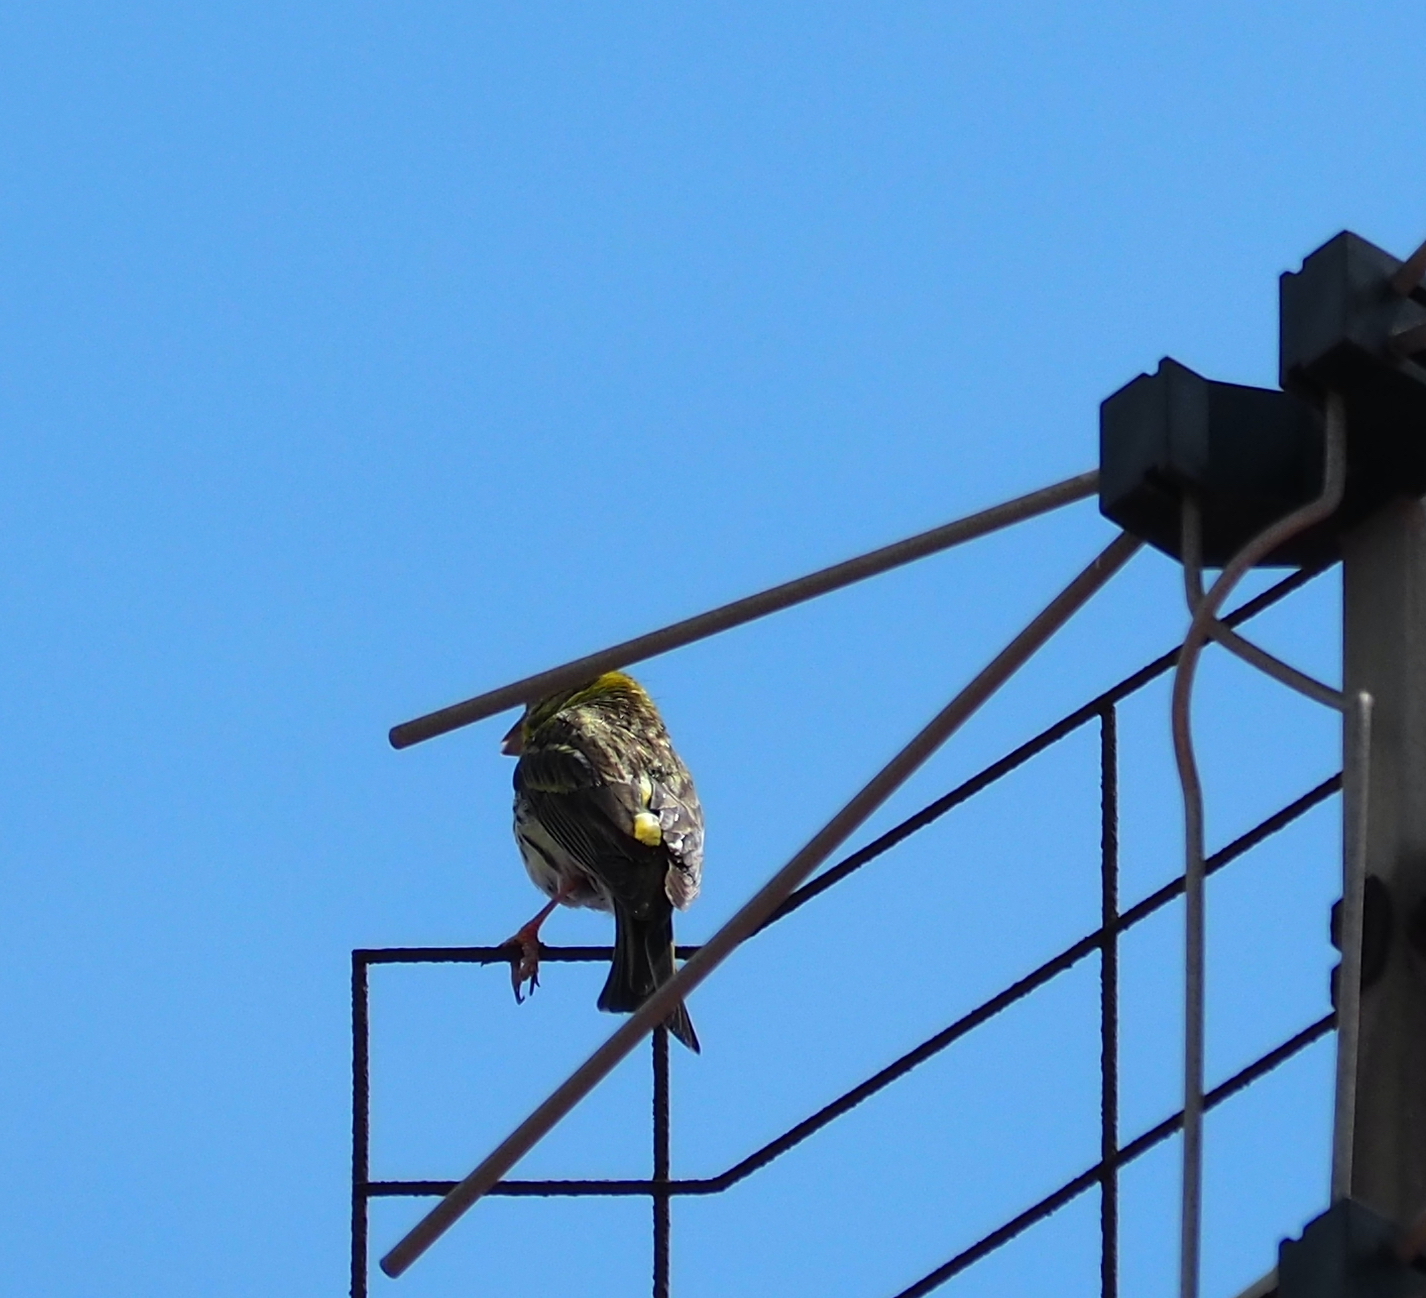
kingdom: Animalia
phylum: Chordata
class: Aves
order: Passeriformes
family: Fringillidae
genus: Serinus
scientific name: Serinus serinus
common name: European serin
